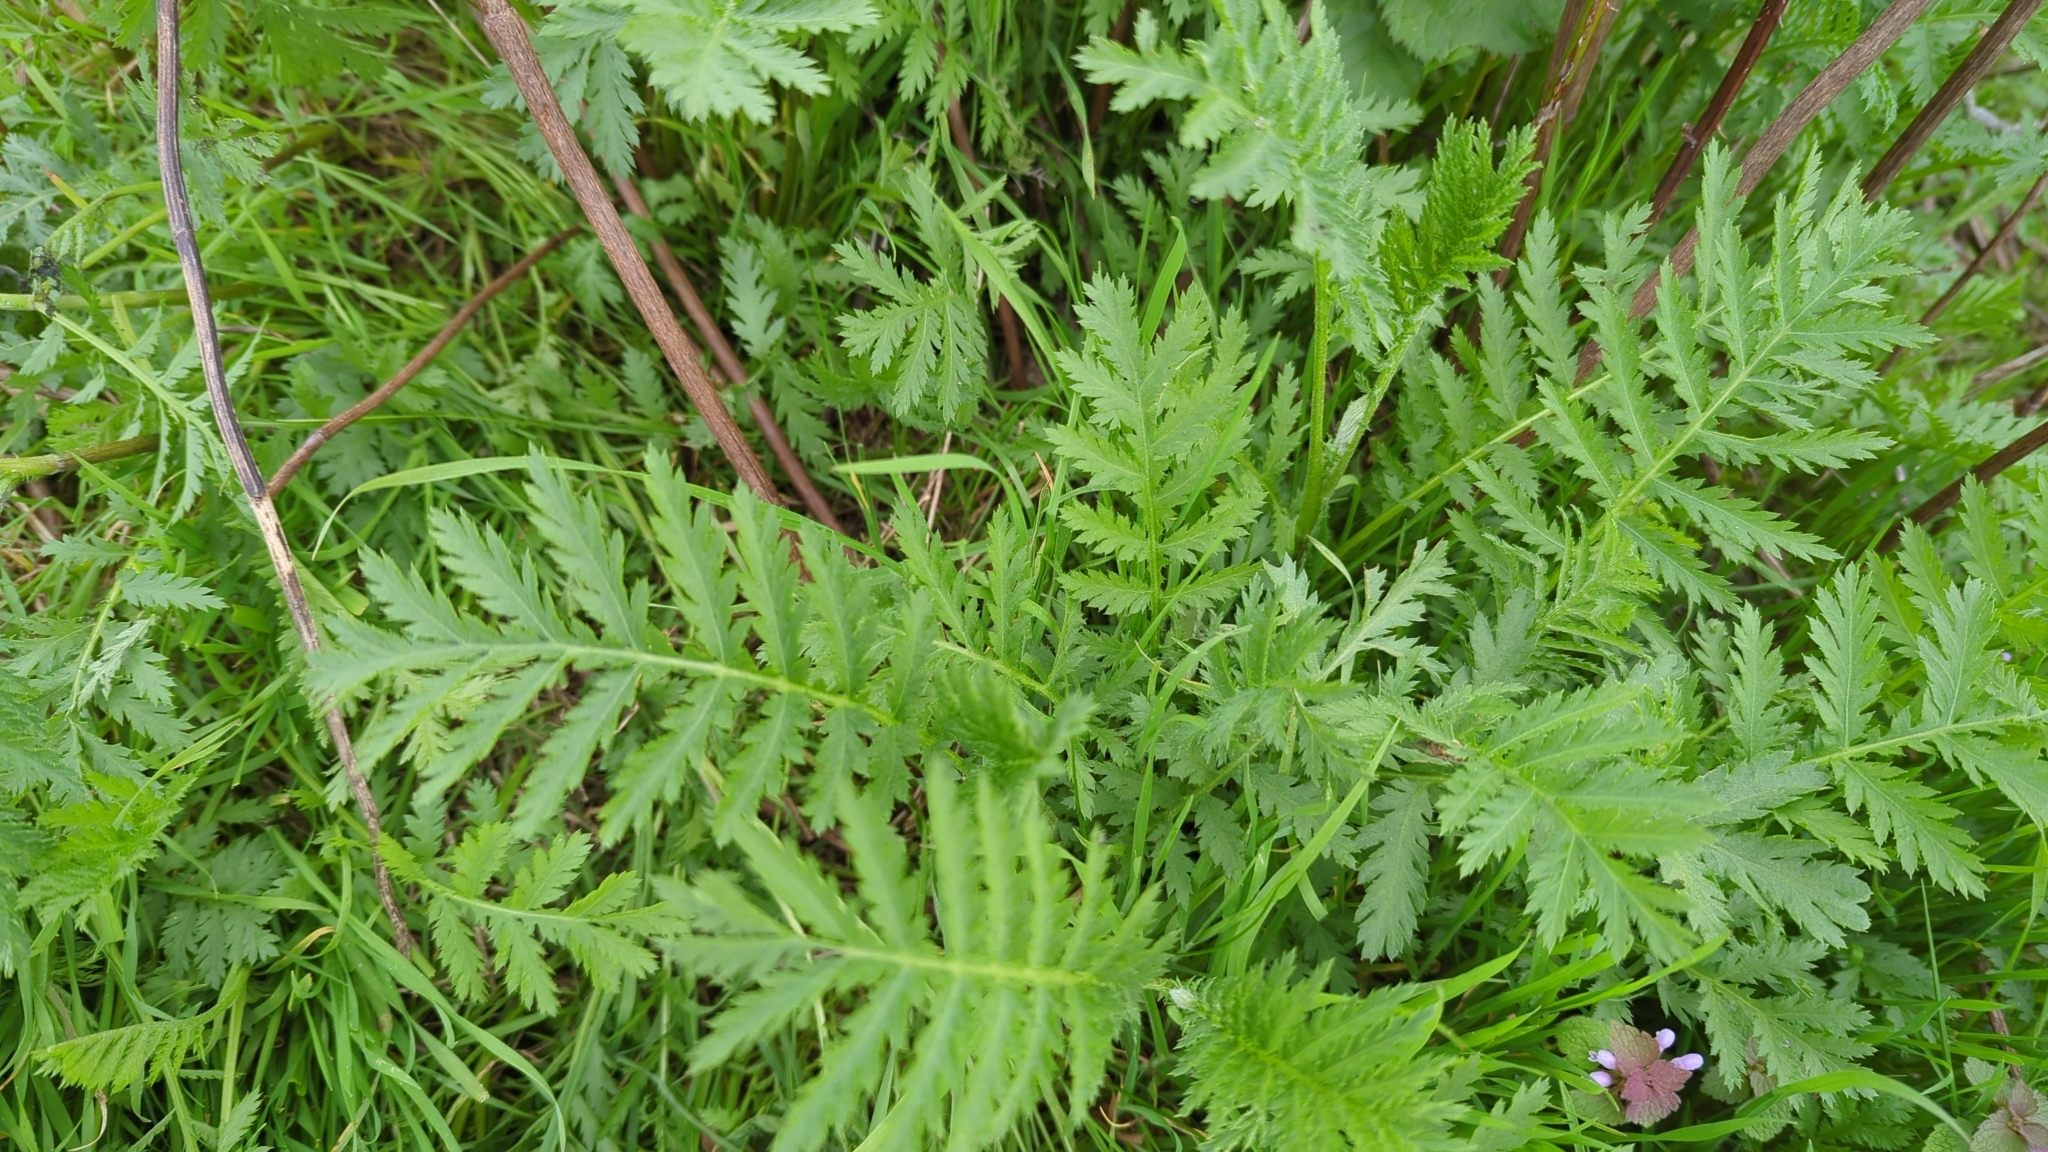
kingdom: Plantae
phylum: Tracheophyta
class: Magnoliopsida
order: Asterales
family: Asteraceae
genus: Tanacetum
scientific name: Tanacetum vulgare
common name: Common tansy
